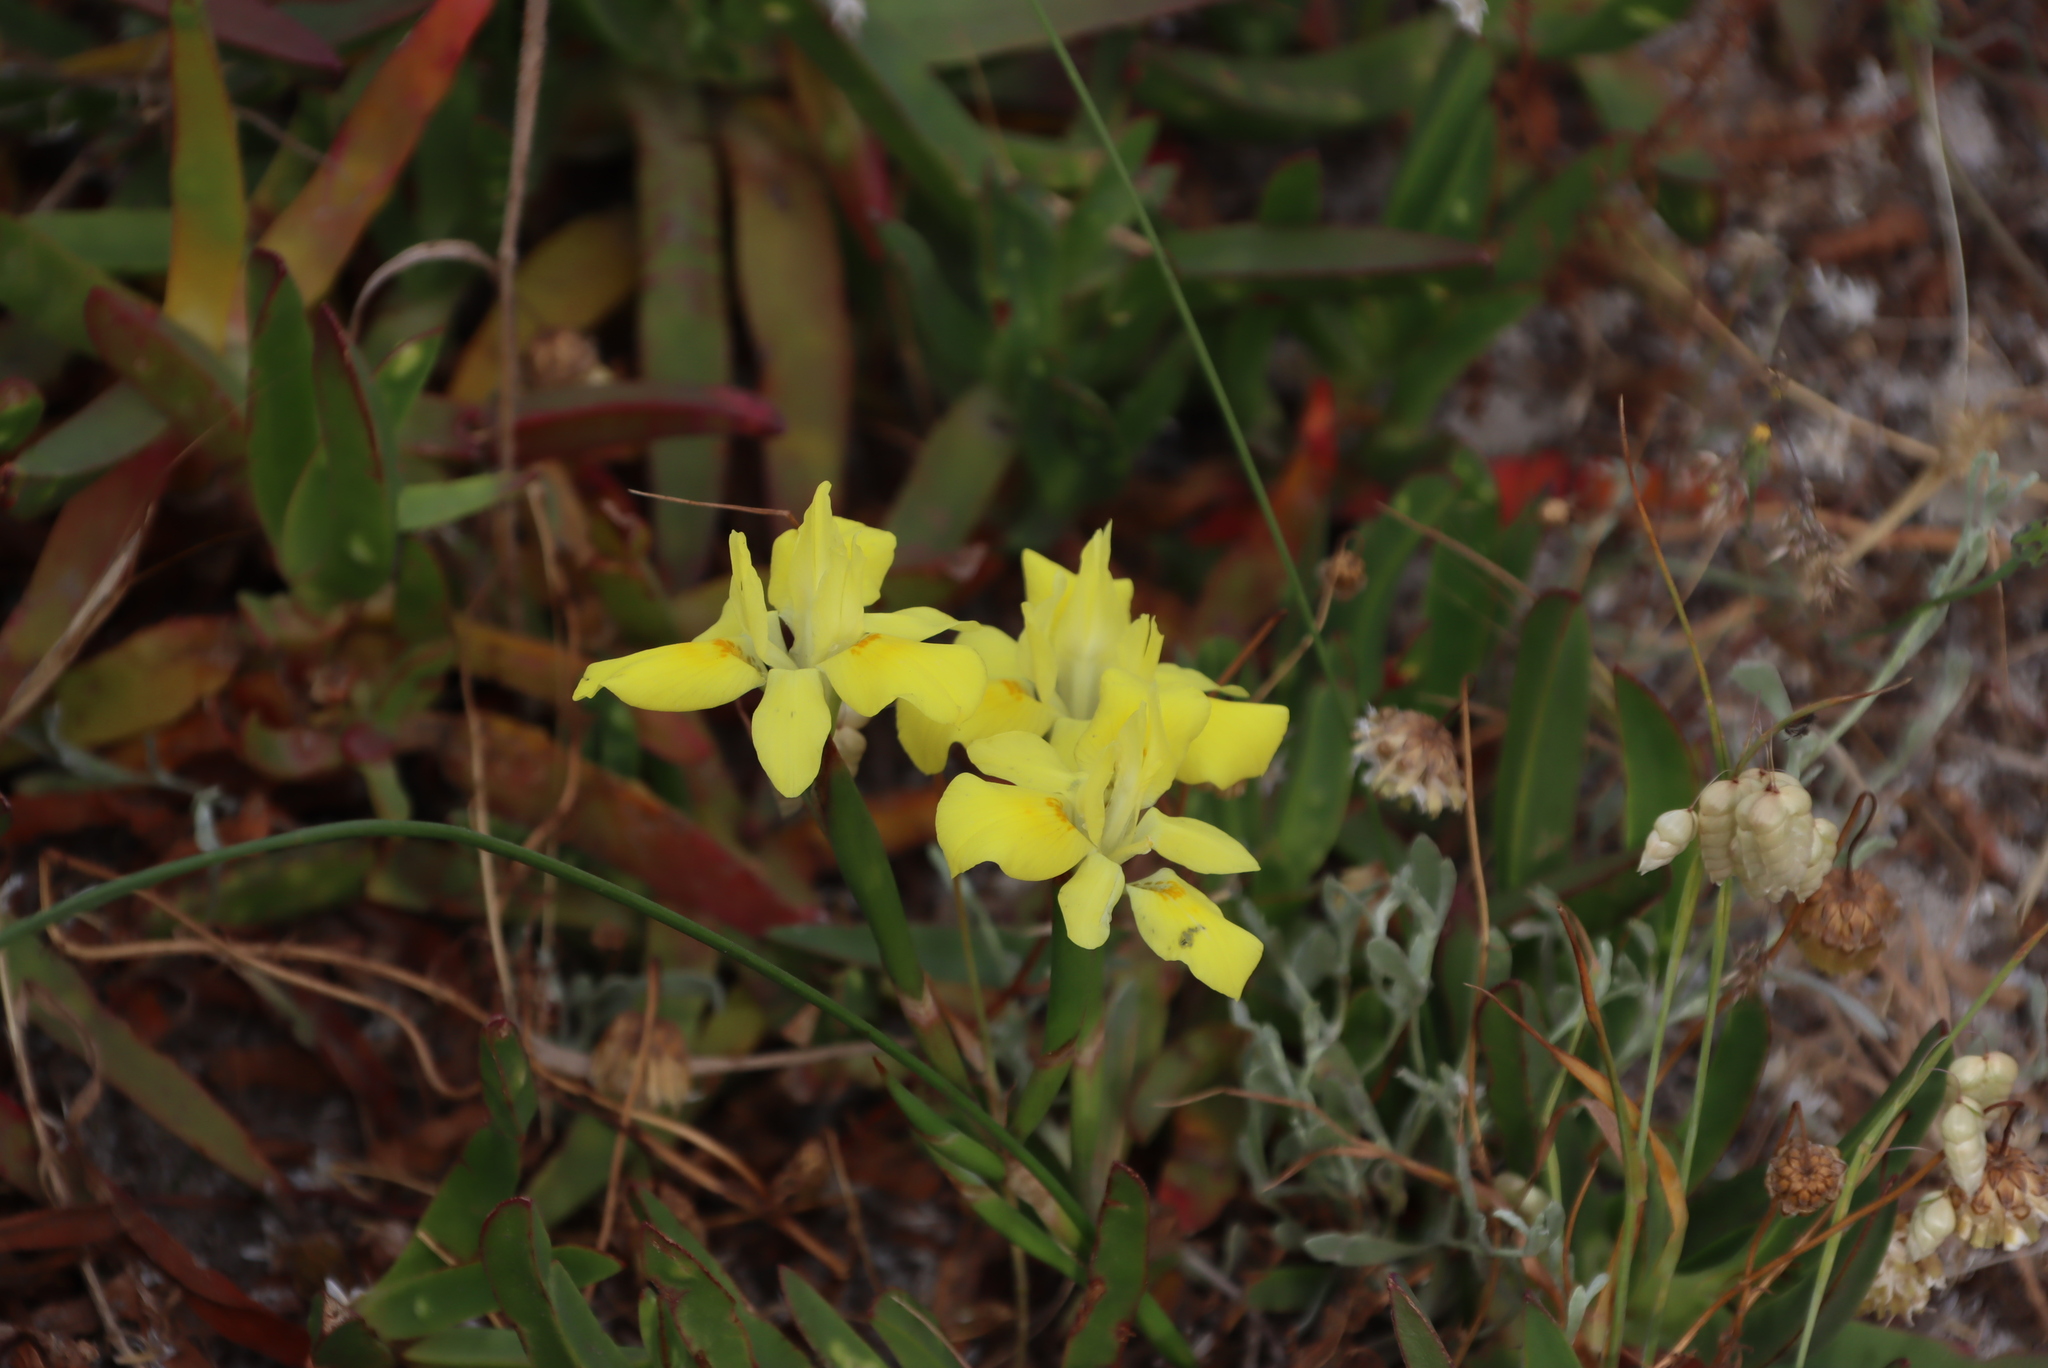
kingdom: Plantae
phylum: Tracheophyta
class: Liliopsida
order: Asparagales
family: Iridaceae
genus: Moraea
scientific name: Moraea fugax
